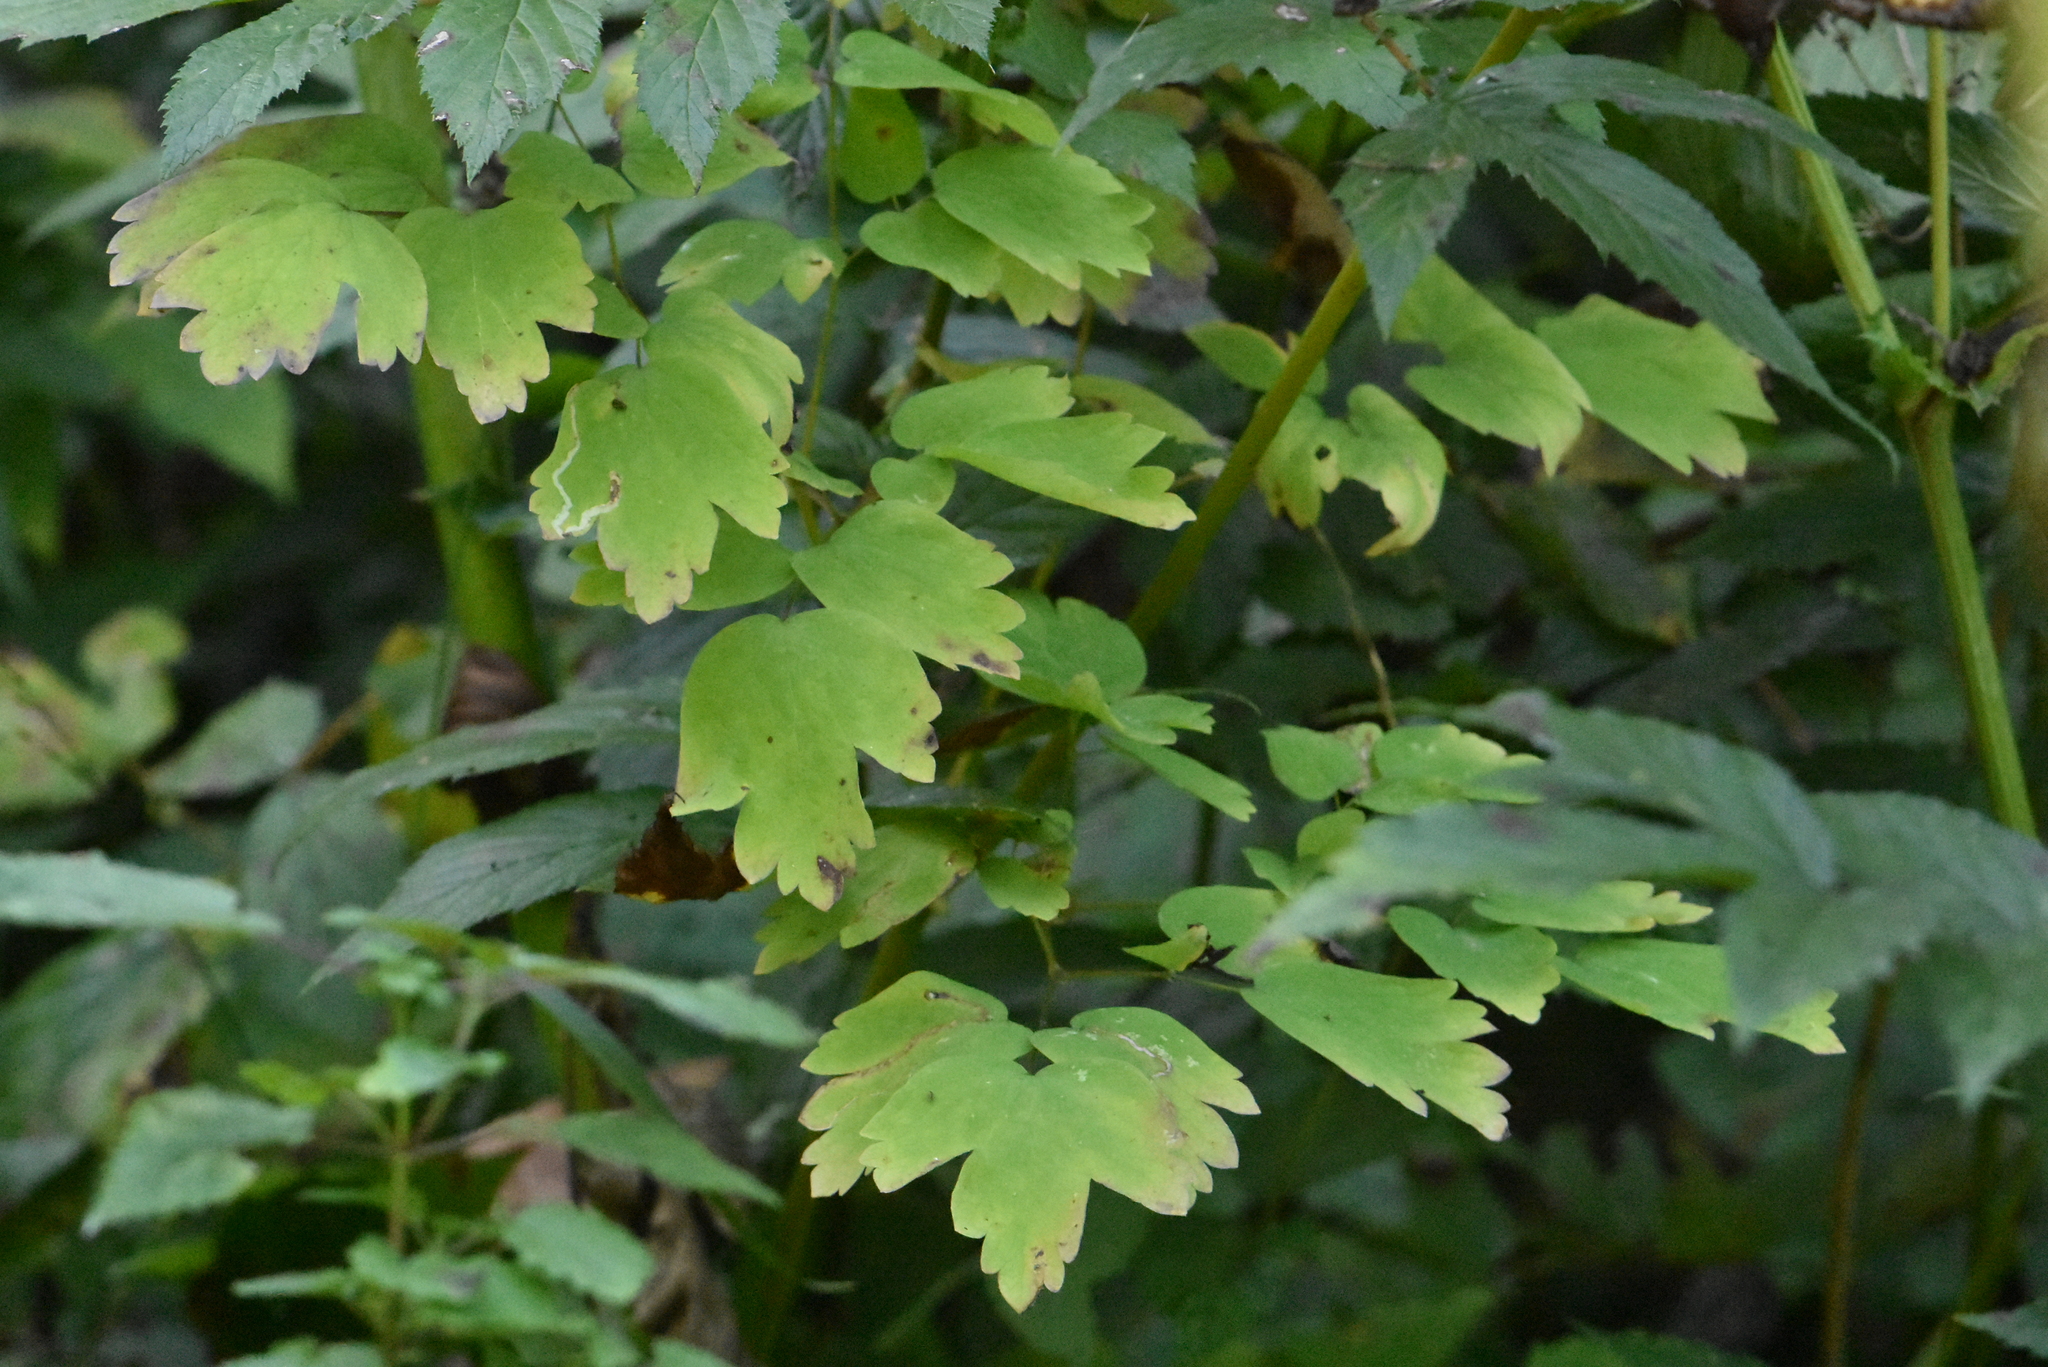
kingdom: Plantae
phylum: Tracheophyta
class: Magnoliopsida
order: Ranunculales
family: Ranunculaceae
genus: Thalictrum
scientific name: Thalictrum aquilegiifolium
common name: French meadow-rue
